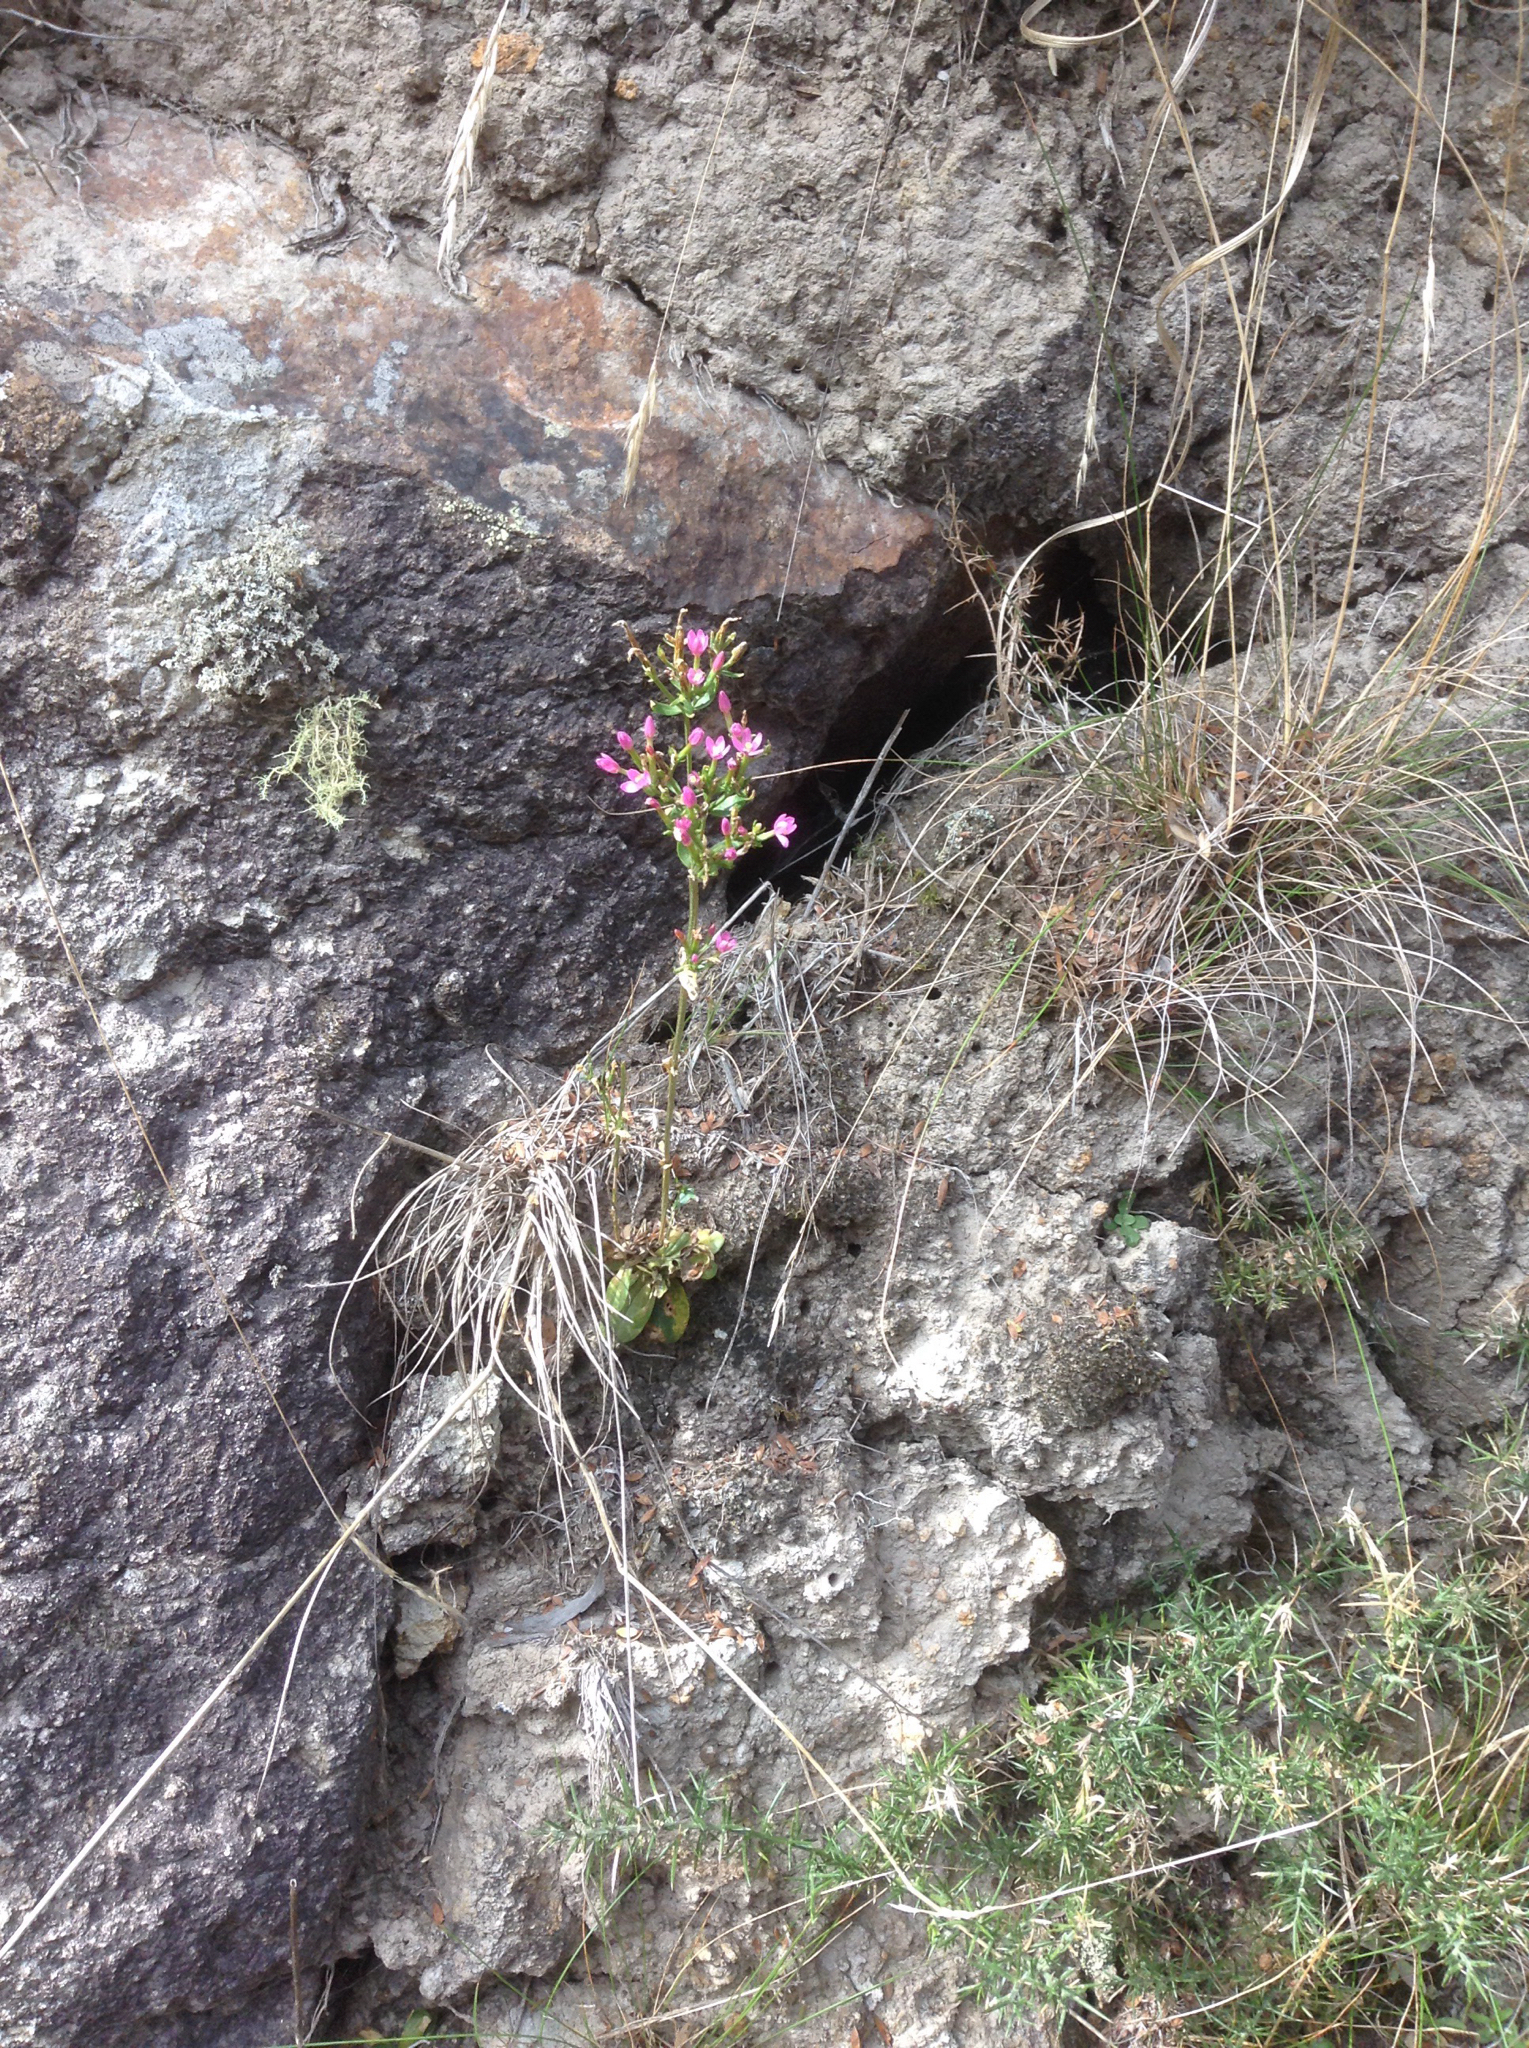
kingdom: Plantae
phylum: Tracheophyta
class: Magnoliopsida
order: Gentianales
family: Gentianaceae
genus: Centaurium
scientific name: Centaurium erythraea
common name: Common centaury
